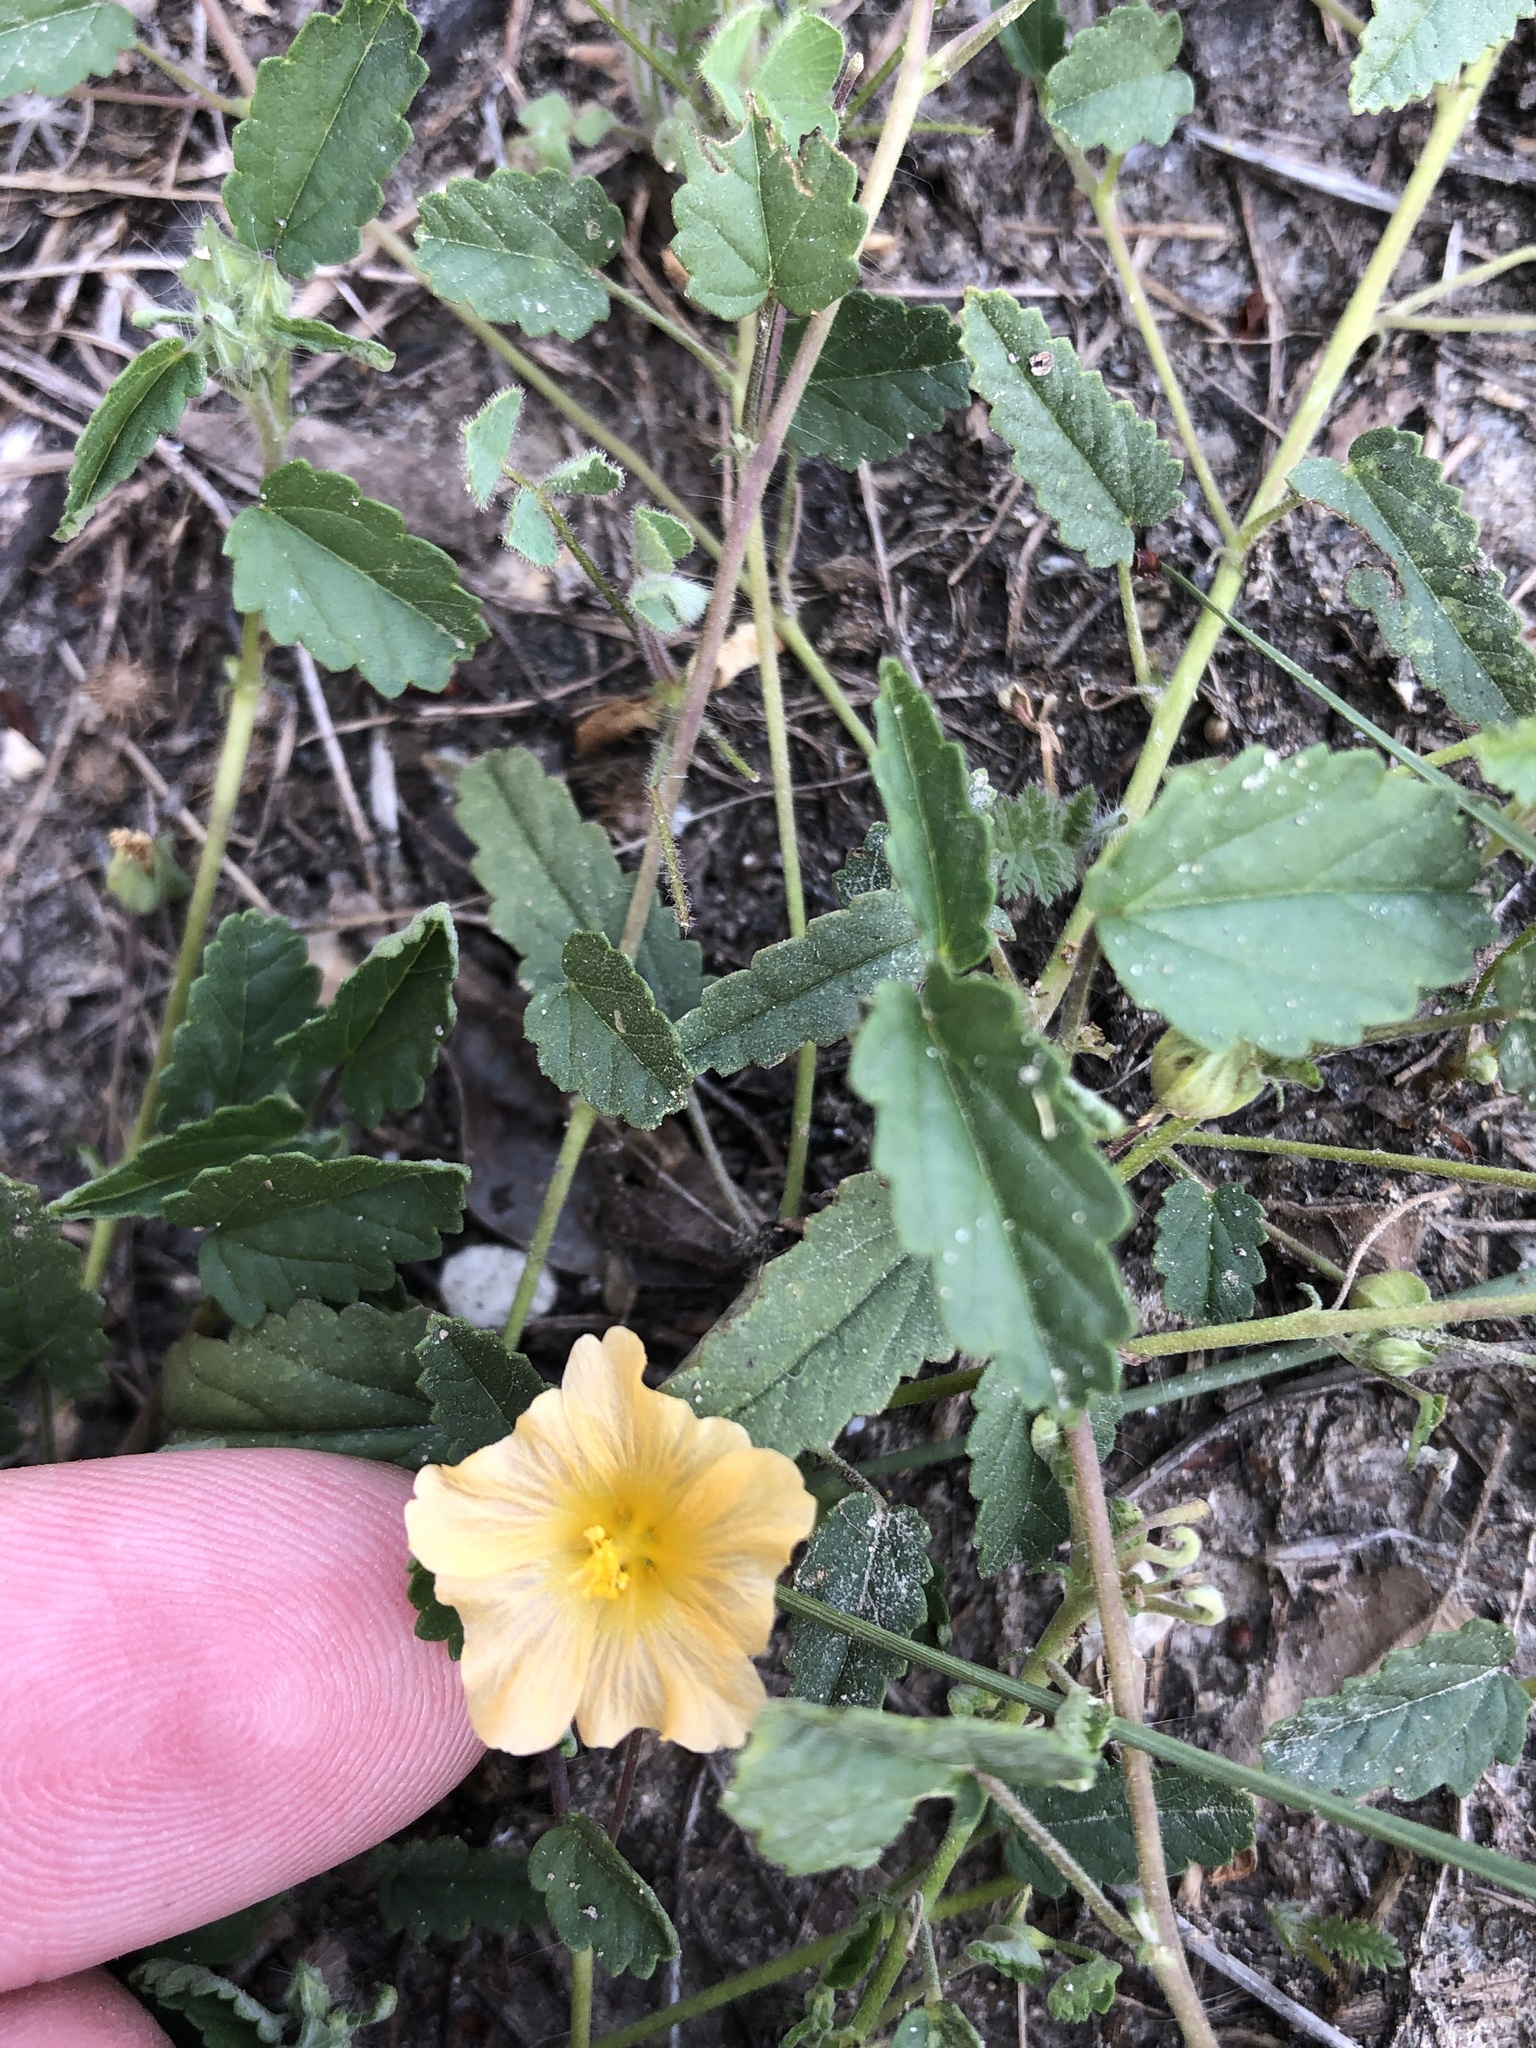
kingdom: Plantae
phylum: Tracheophyta
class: Magnoliopsida
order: Malvales
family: Malvaceae
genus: Sida
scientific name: Sida abutilifolia
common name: Spreading fanpetals
